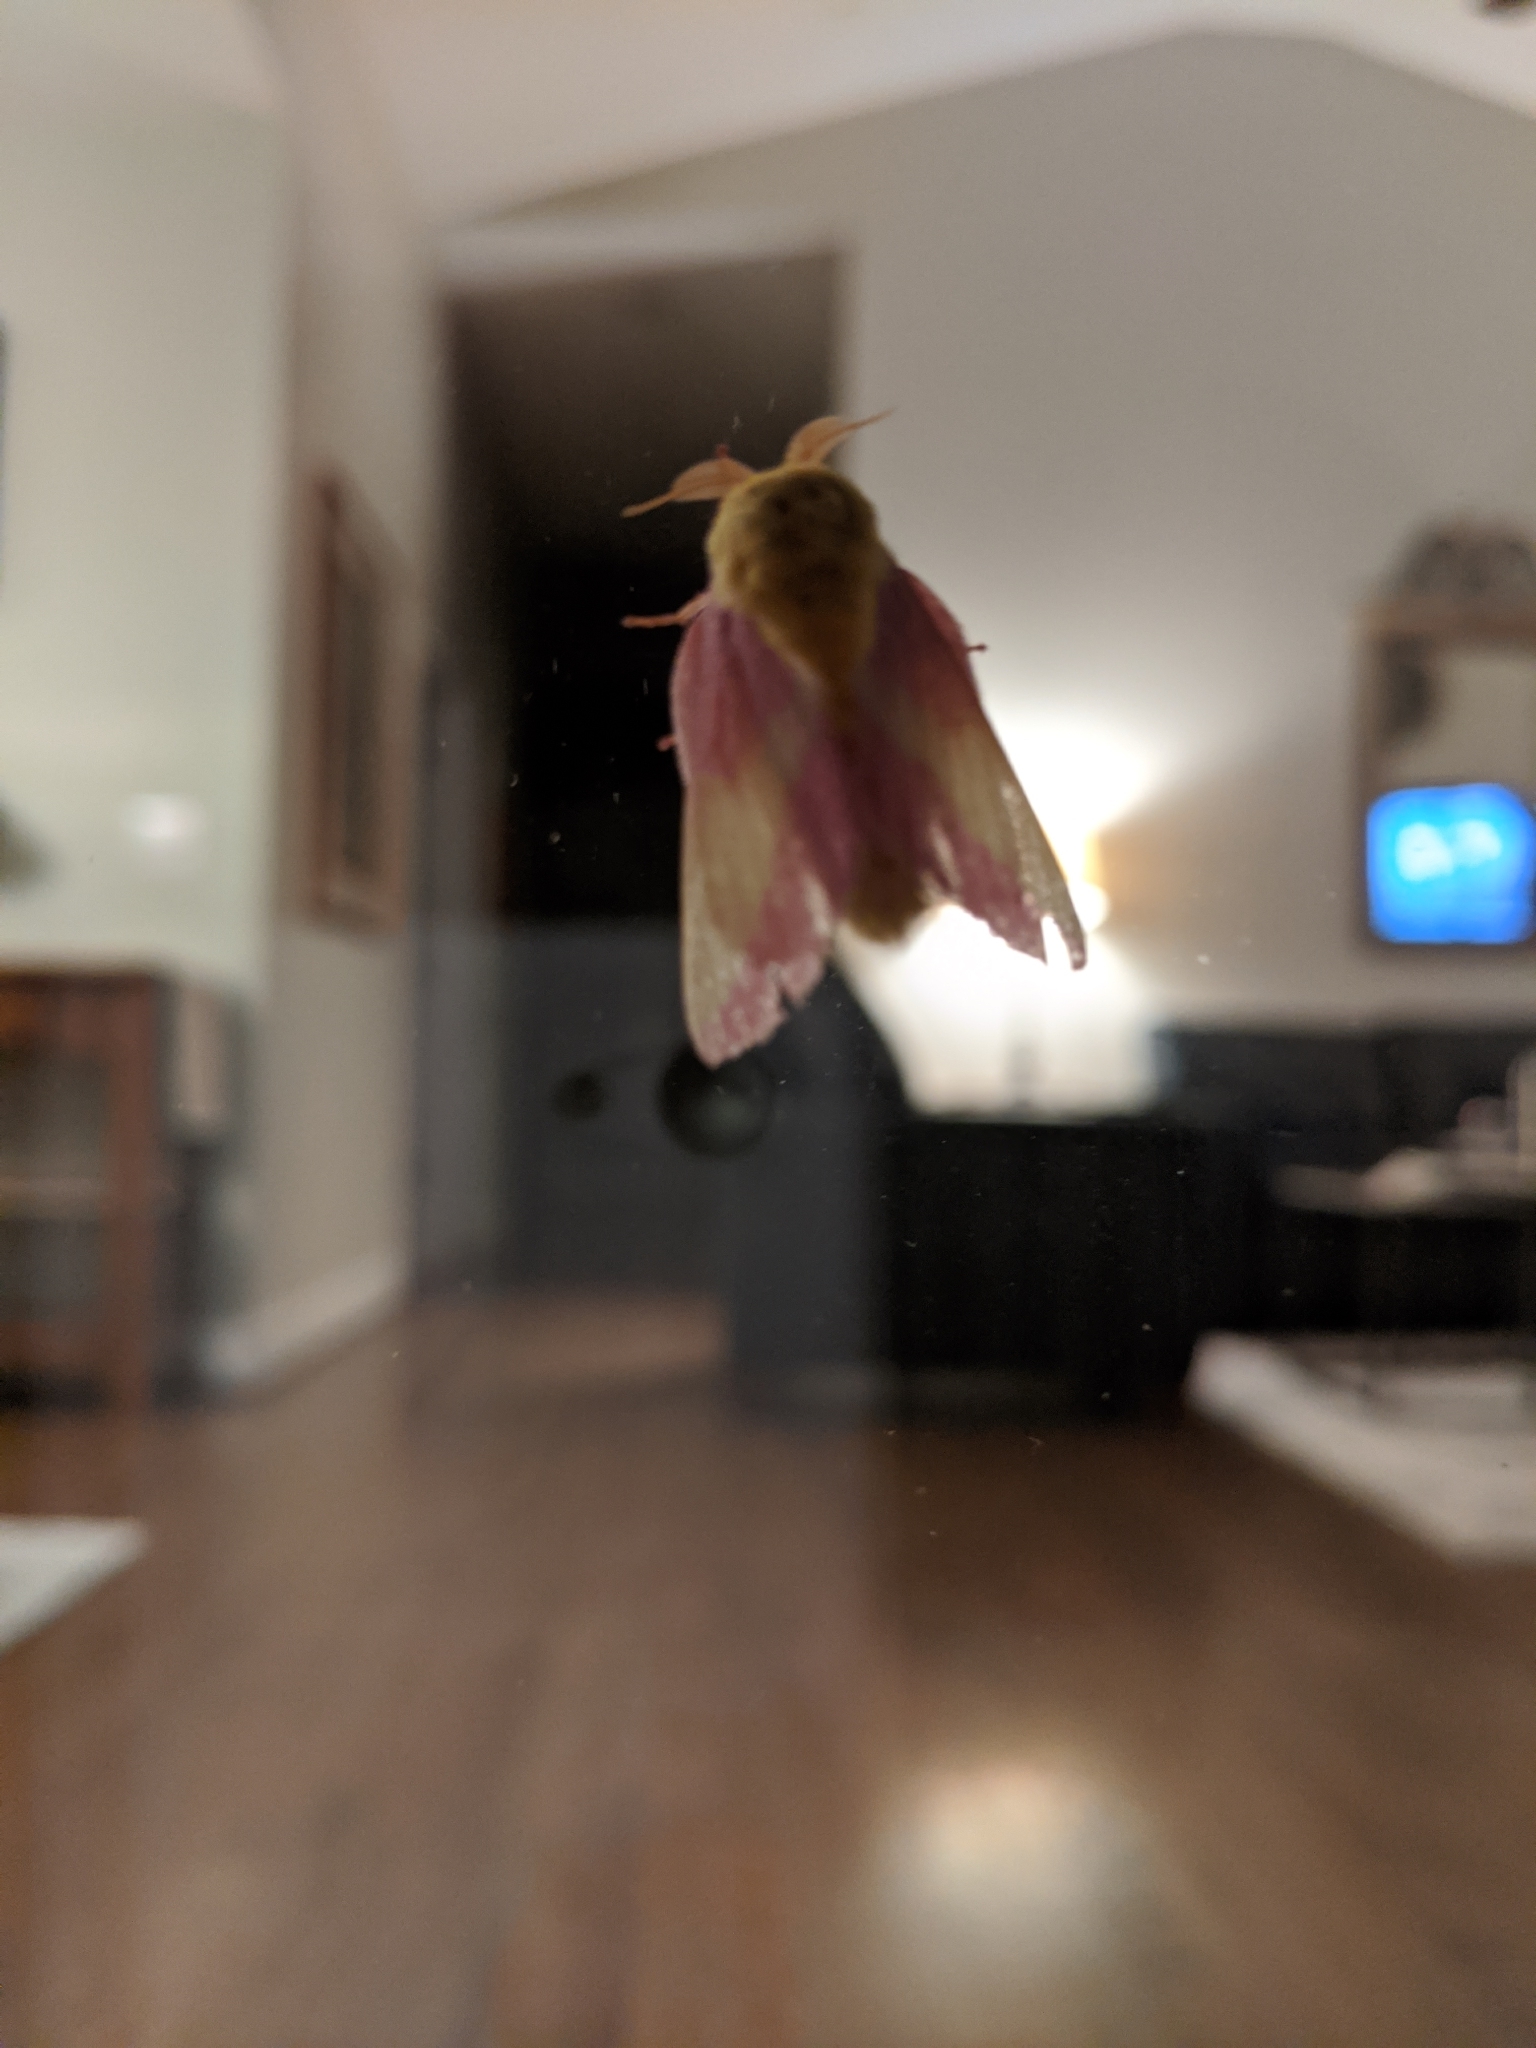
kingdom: Animalia
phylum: Arthropoda
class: Insecta
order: Lepidoptera
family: Saturniidae
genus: Dryocampa
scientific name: Dryocampa rubicunda
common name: Rosy maple moth
